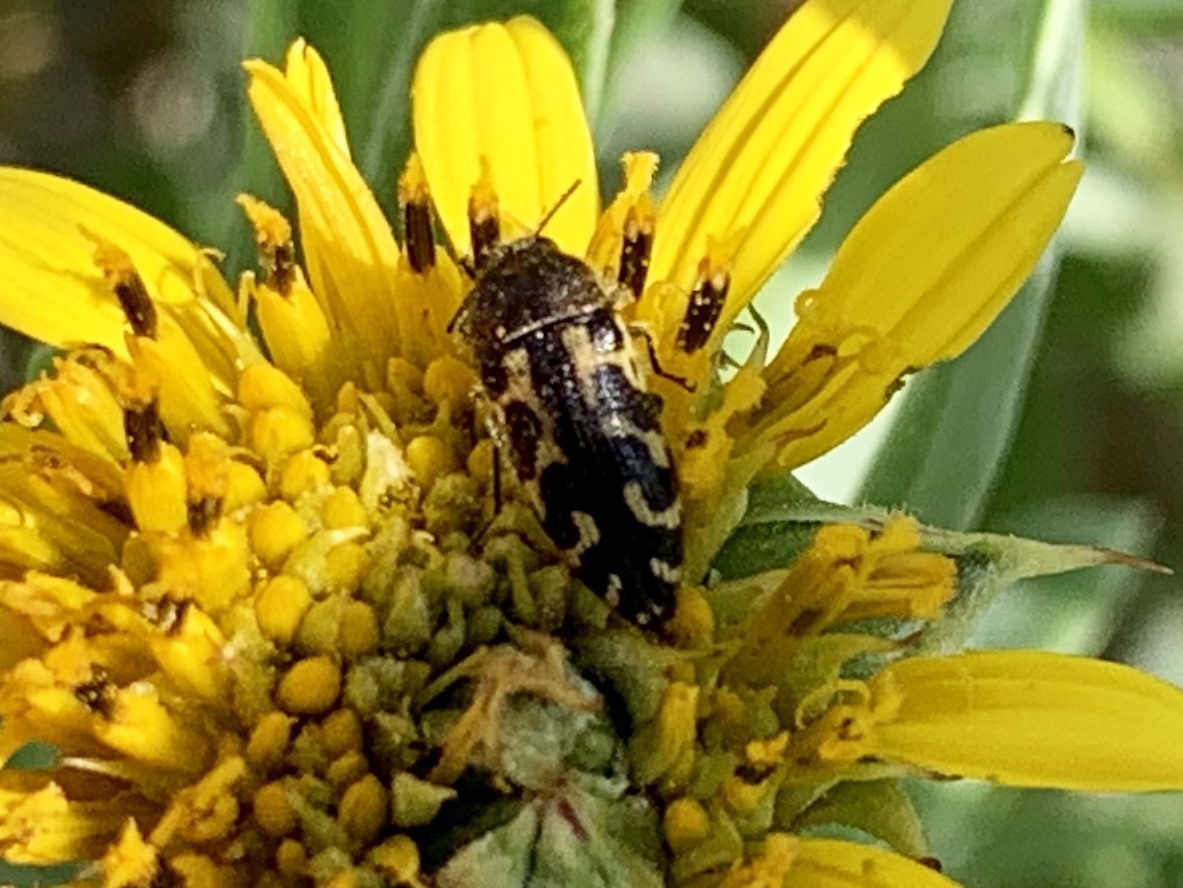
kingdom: Animalia
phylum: Arthropoda
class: Insecta
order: Coleoptera
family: Buprestidae
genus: Acmaeodera
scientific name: Acmaeodera mixta
